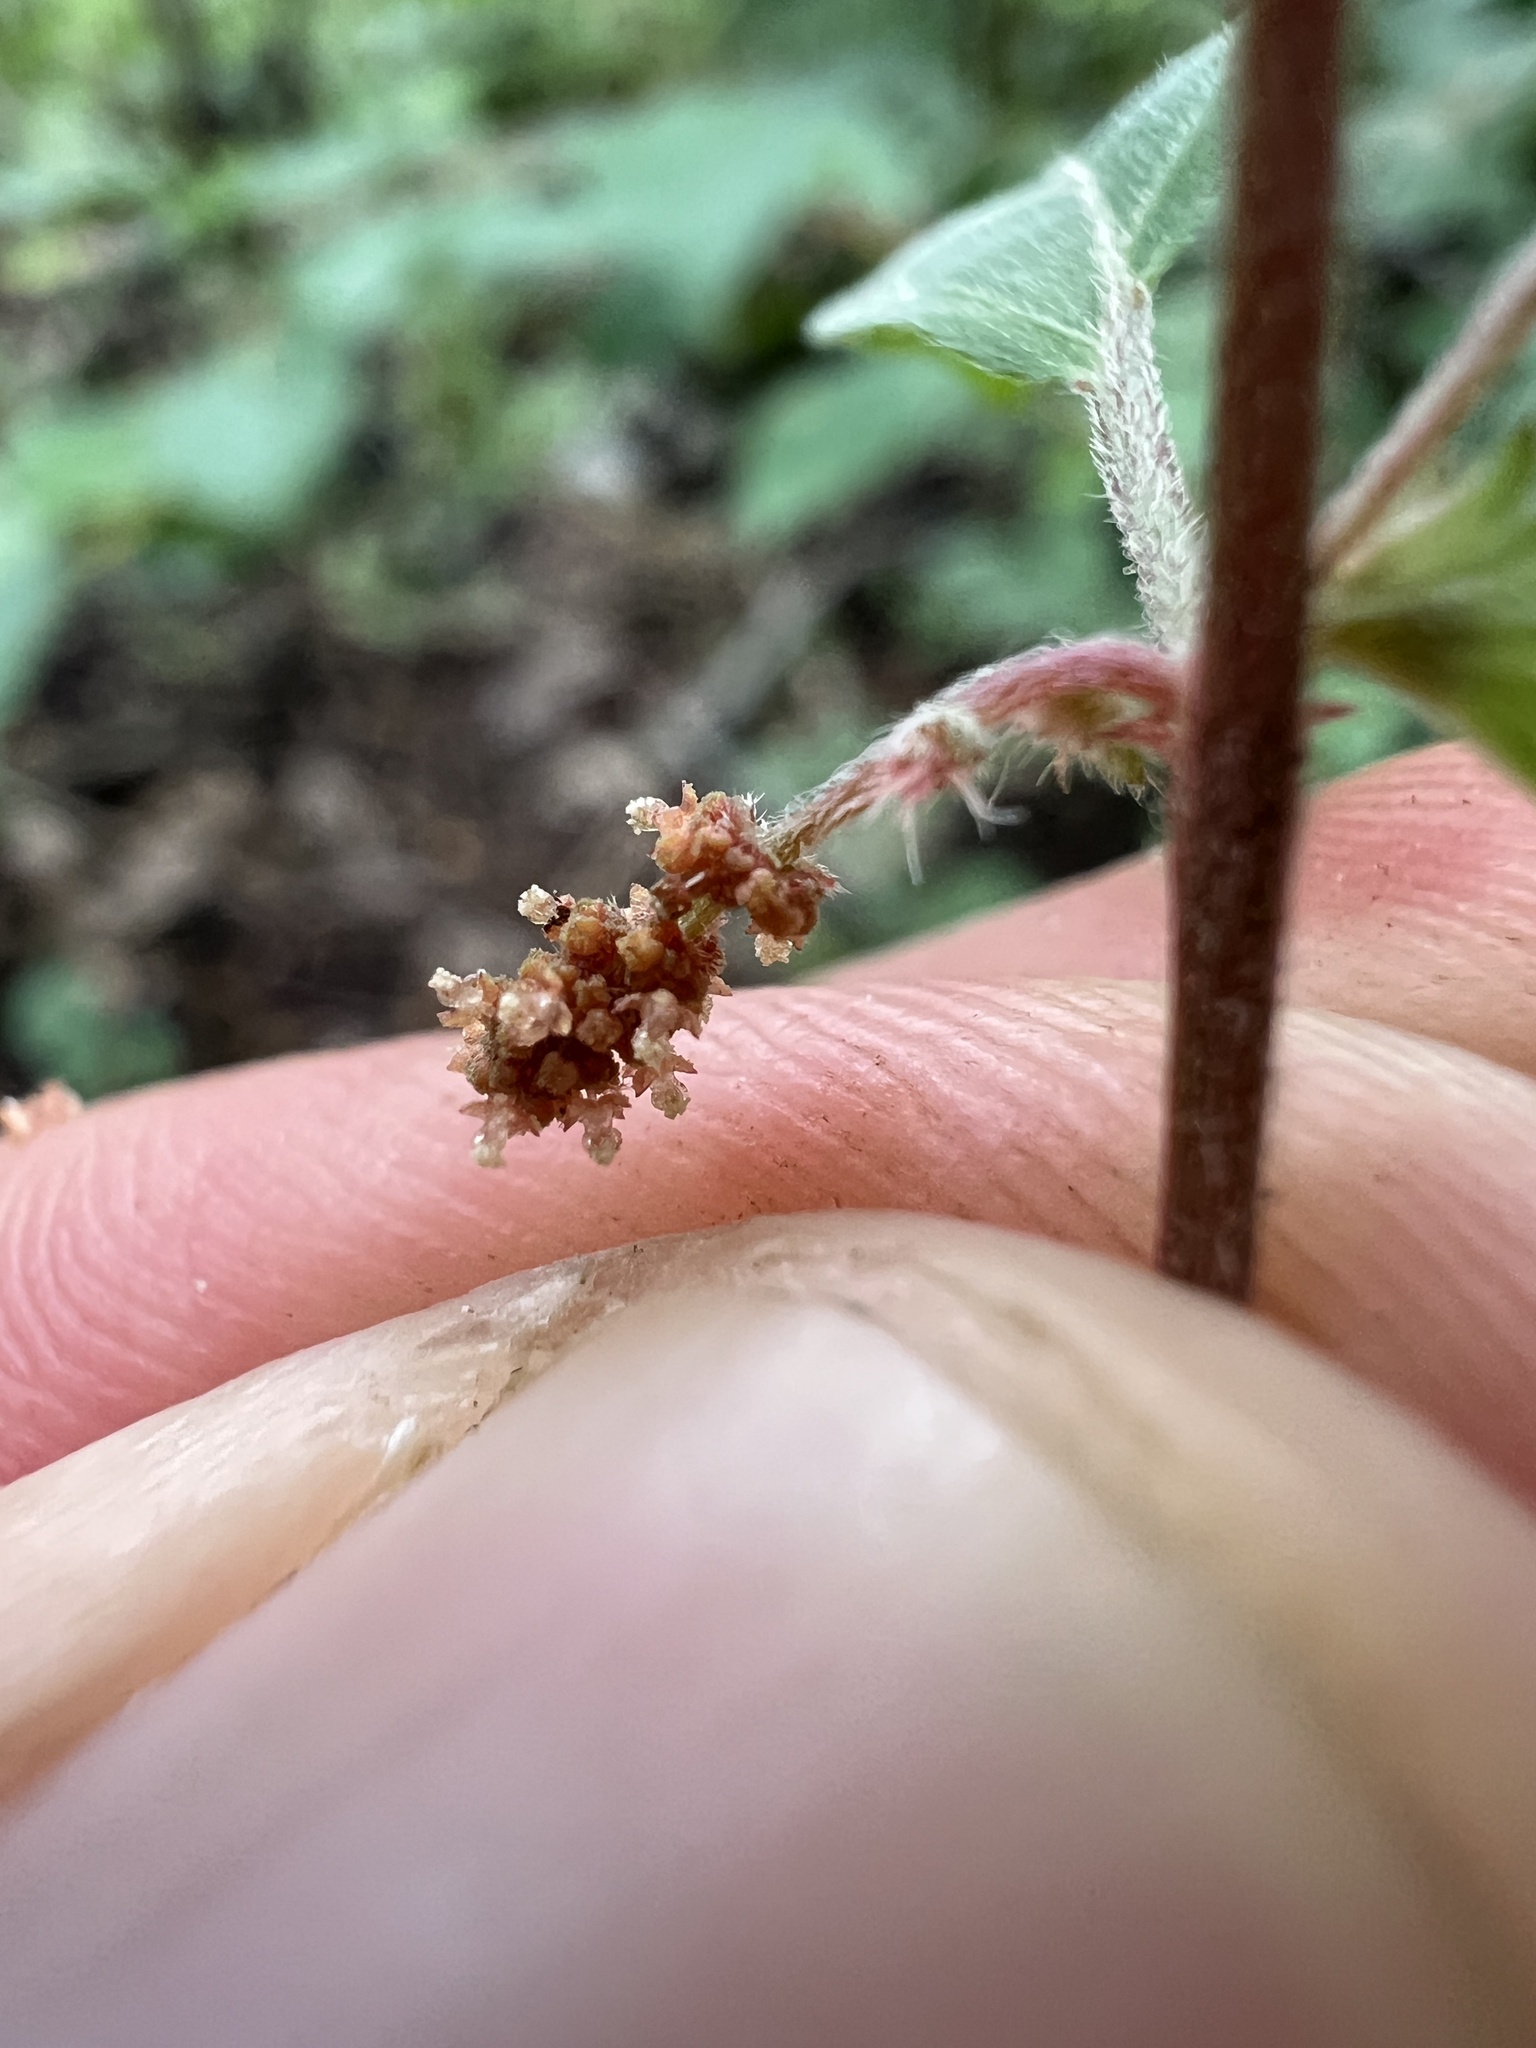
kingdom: Plantae
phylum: Tracheophyta
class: Magnoliopsida
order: Malpighiales
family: Euphorbiaceae
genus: Acalypha
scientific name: Acalypha gracilens
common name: Slender three-seeded mercury
